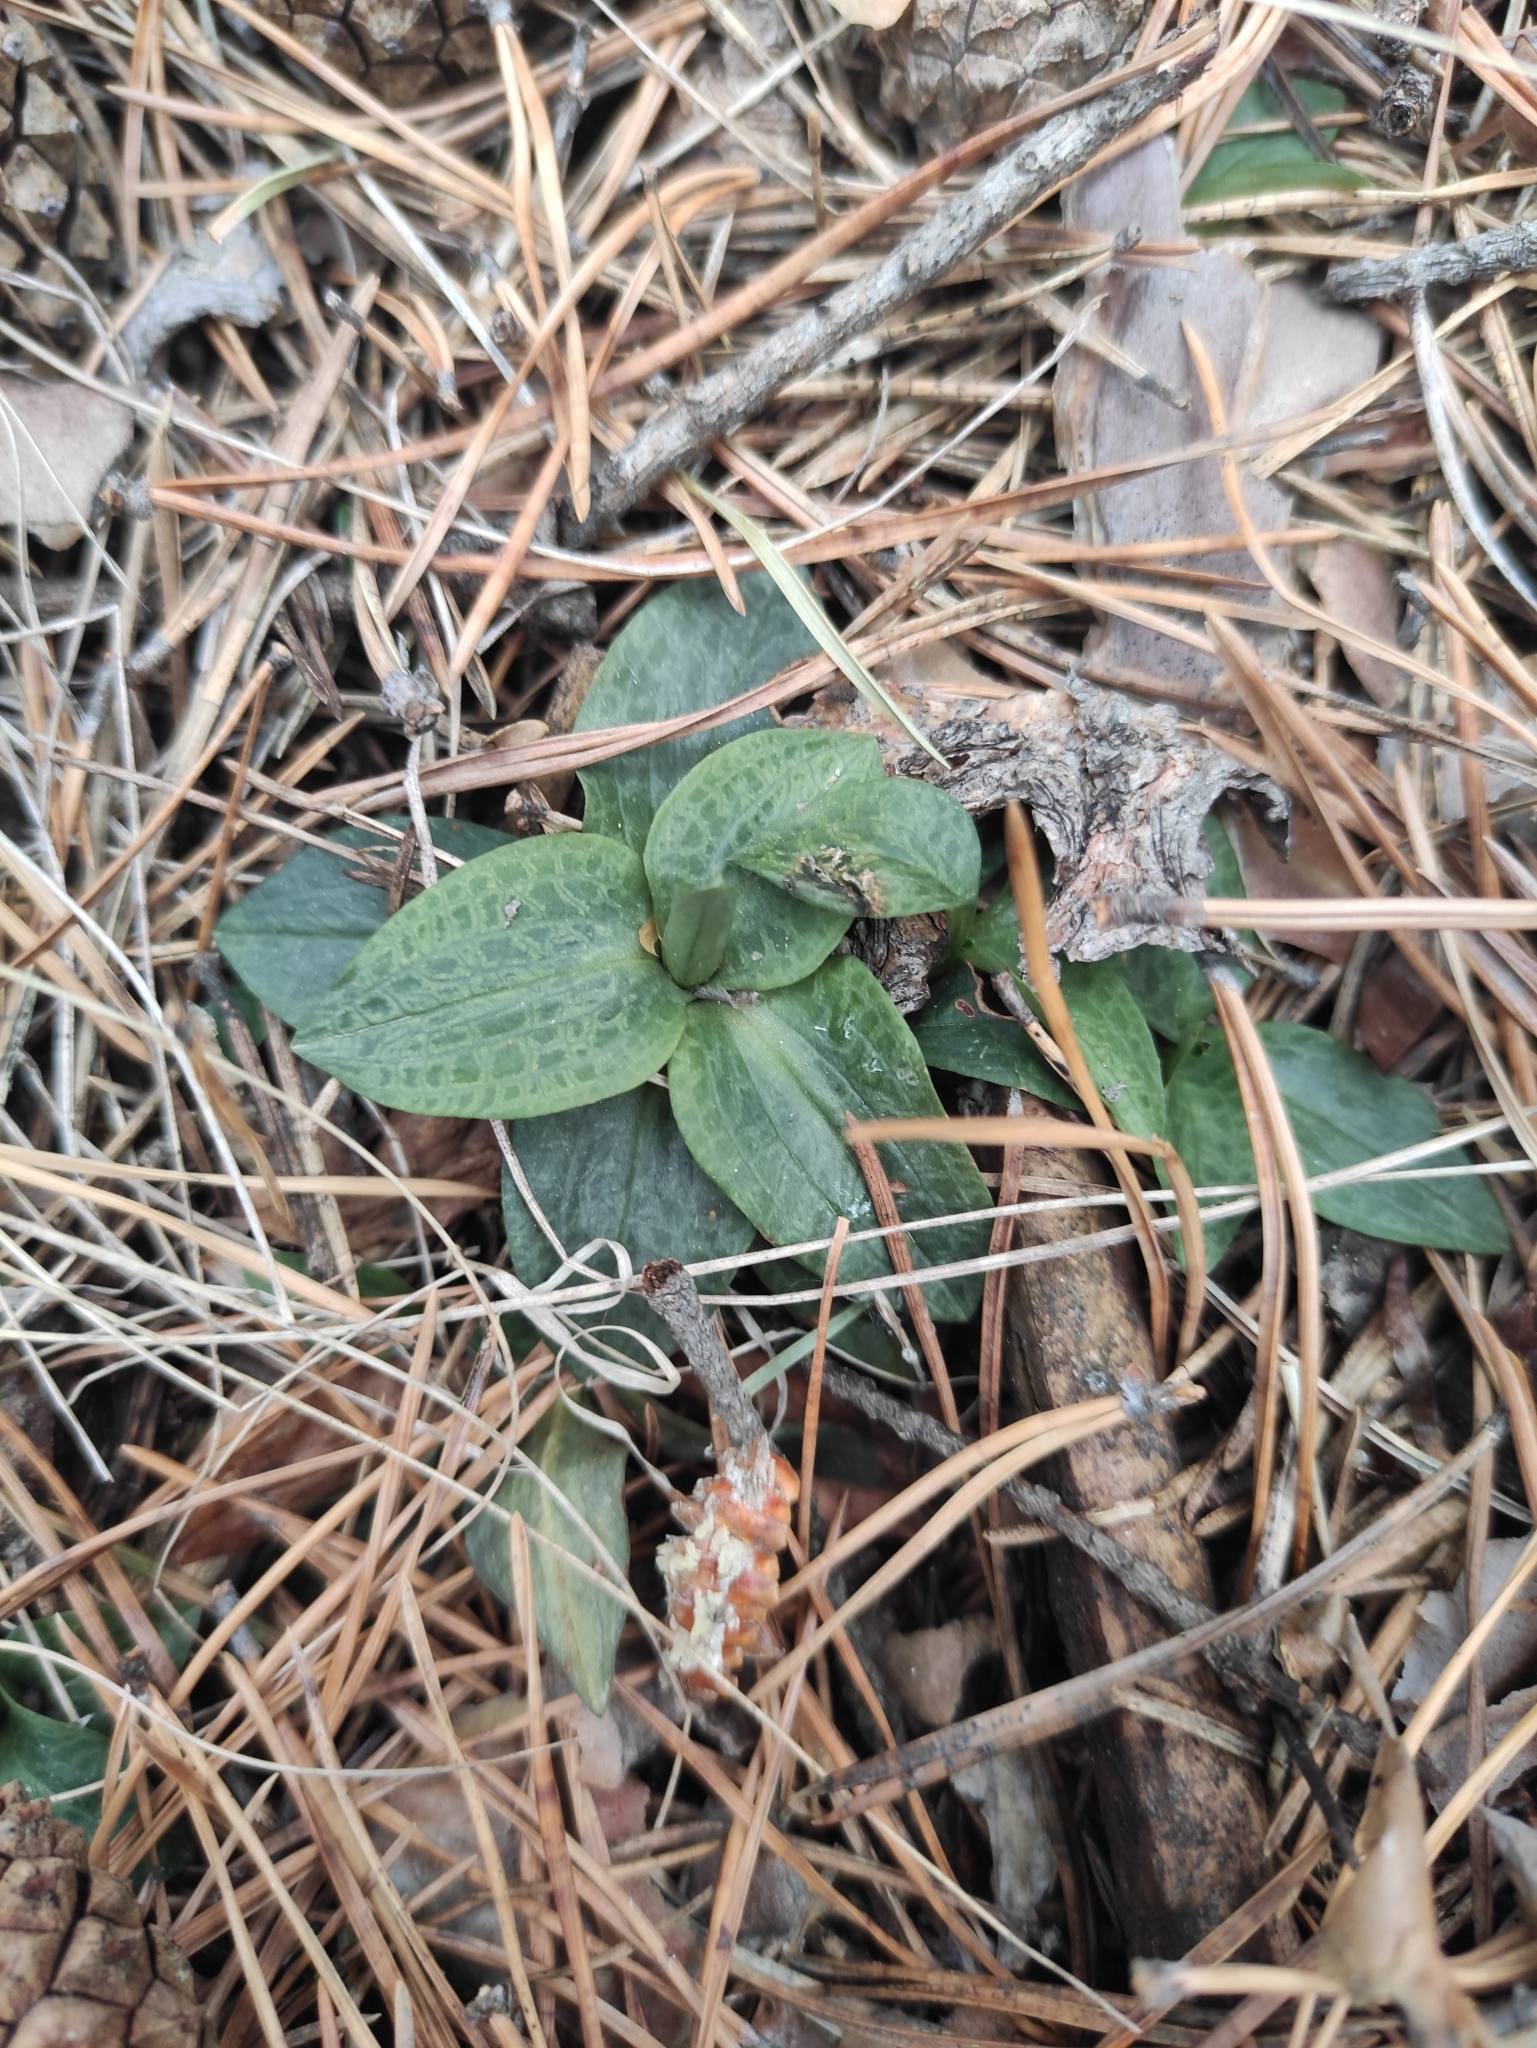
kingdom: Plantae
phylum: Tracheophyta
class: Liliopsida
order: Asparagales
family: Orchidaceae
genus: Goodyera
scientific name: Goodyera repens
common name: Creeping lady's-tresses
